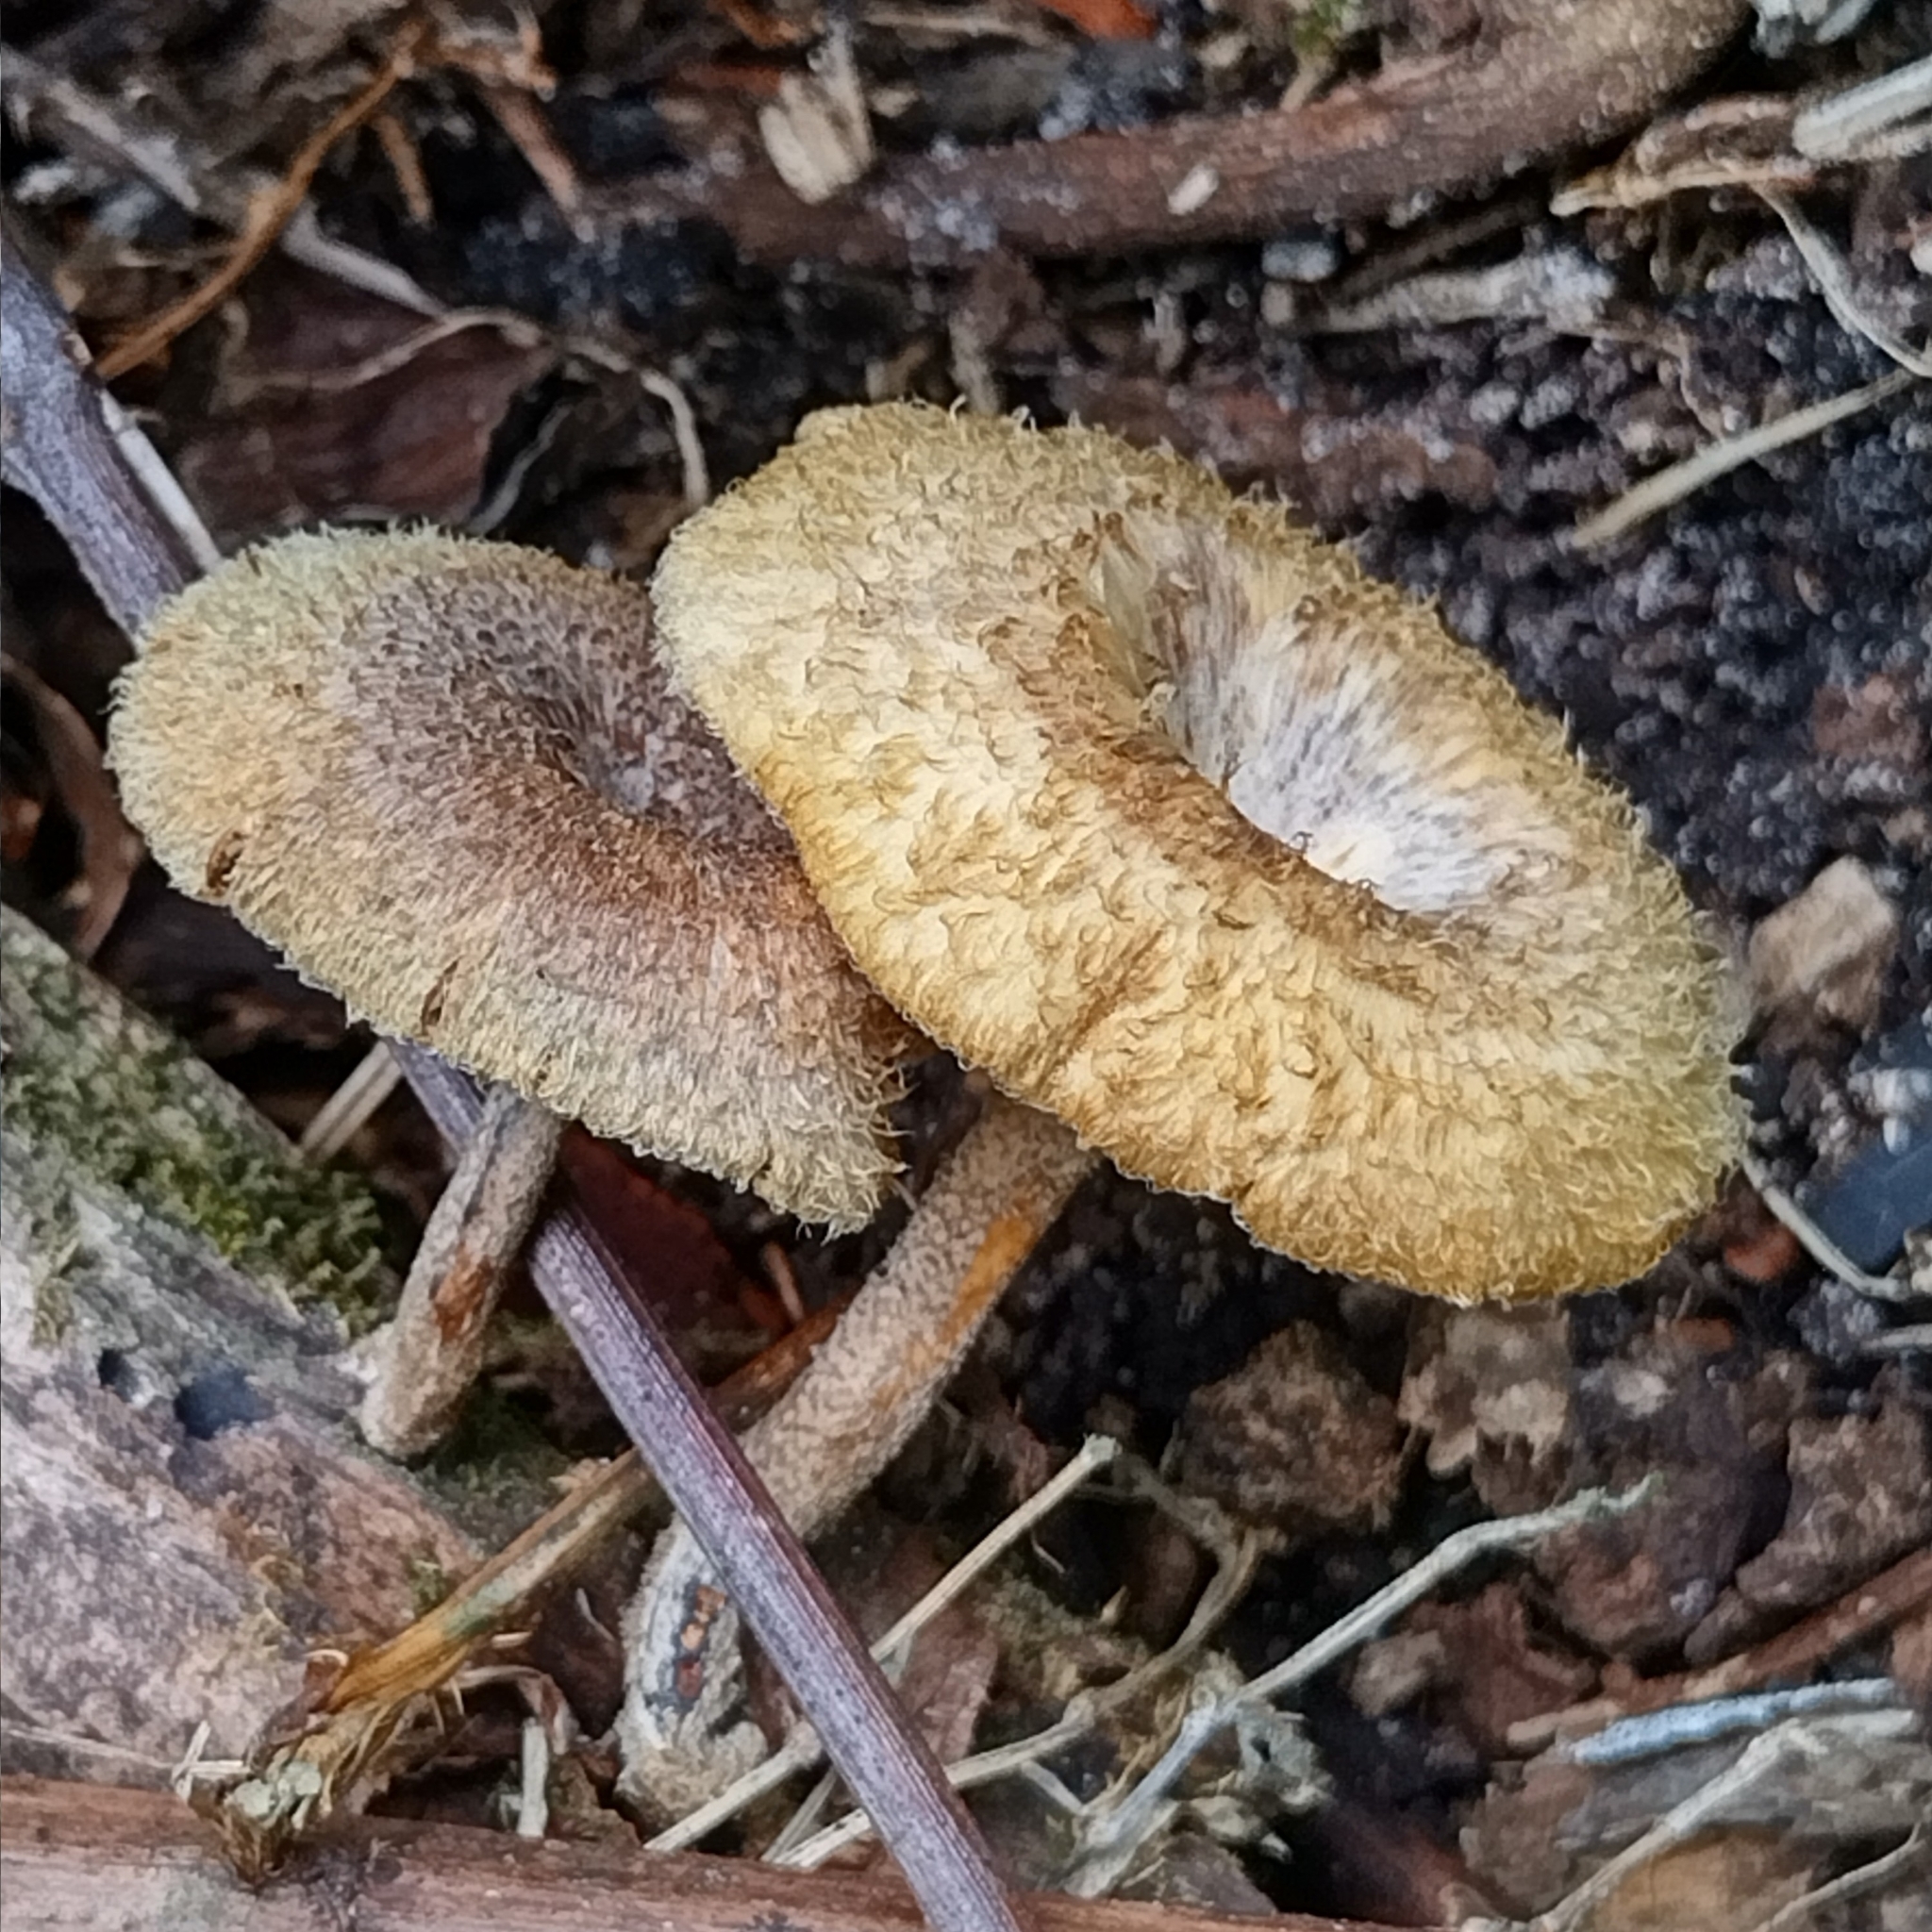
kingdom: Fungi
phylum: Basidiomycota
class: Agaricomycetes
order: Polyporales
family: Polyporaceae
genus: Lentinus
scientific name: Lentinus crinitus
